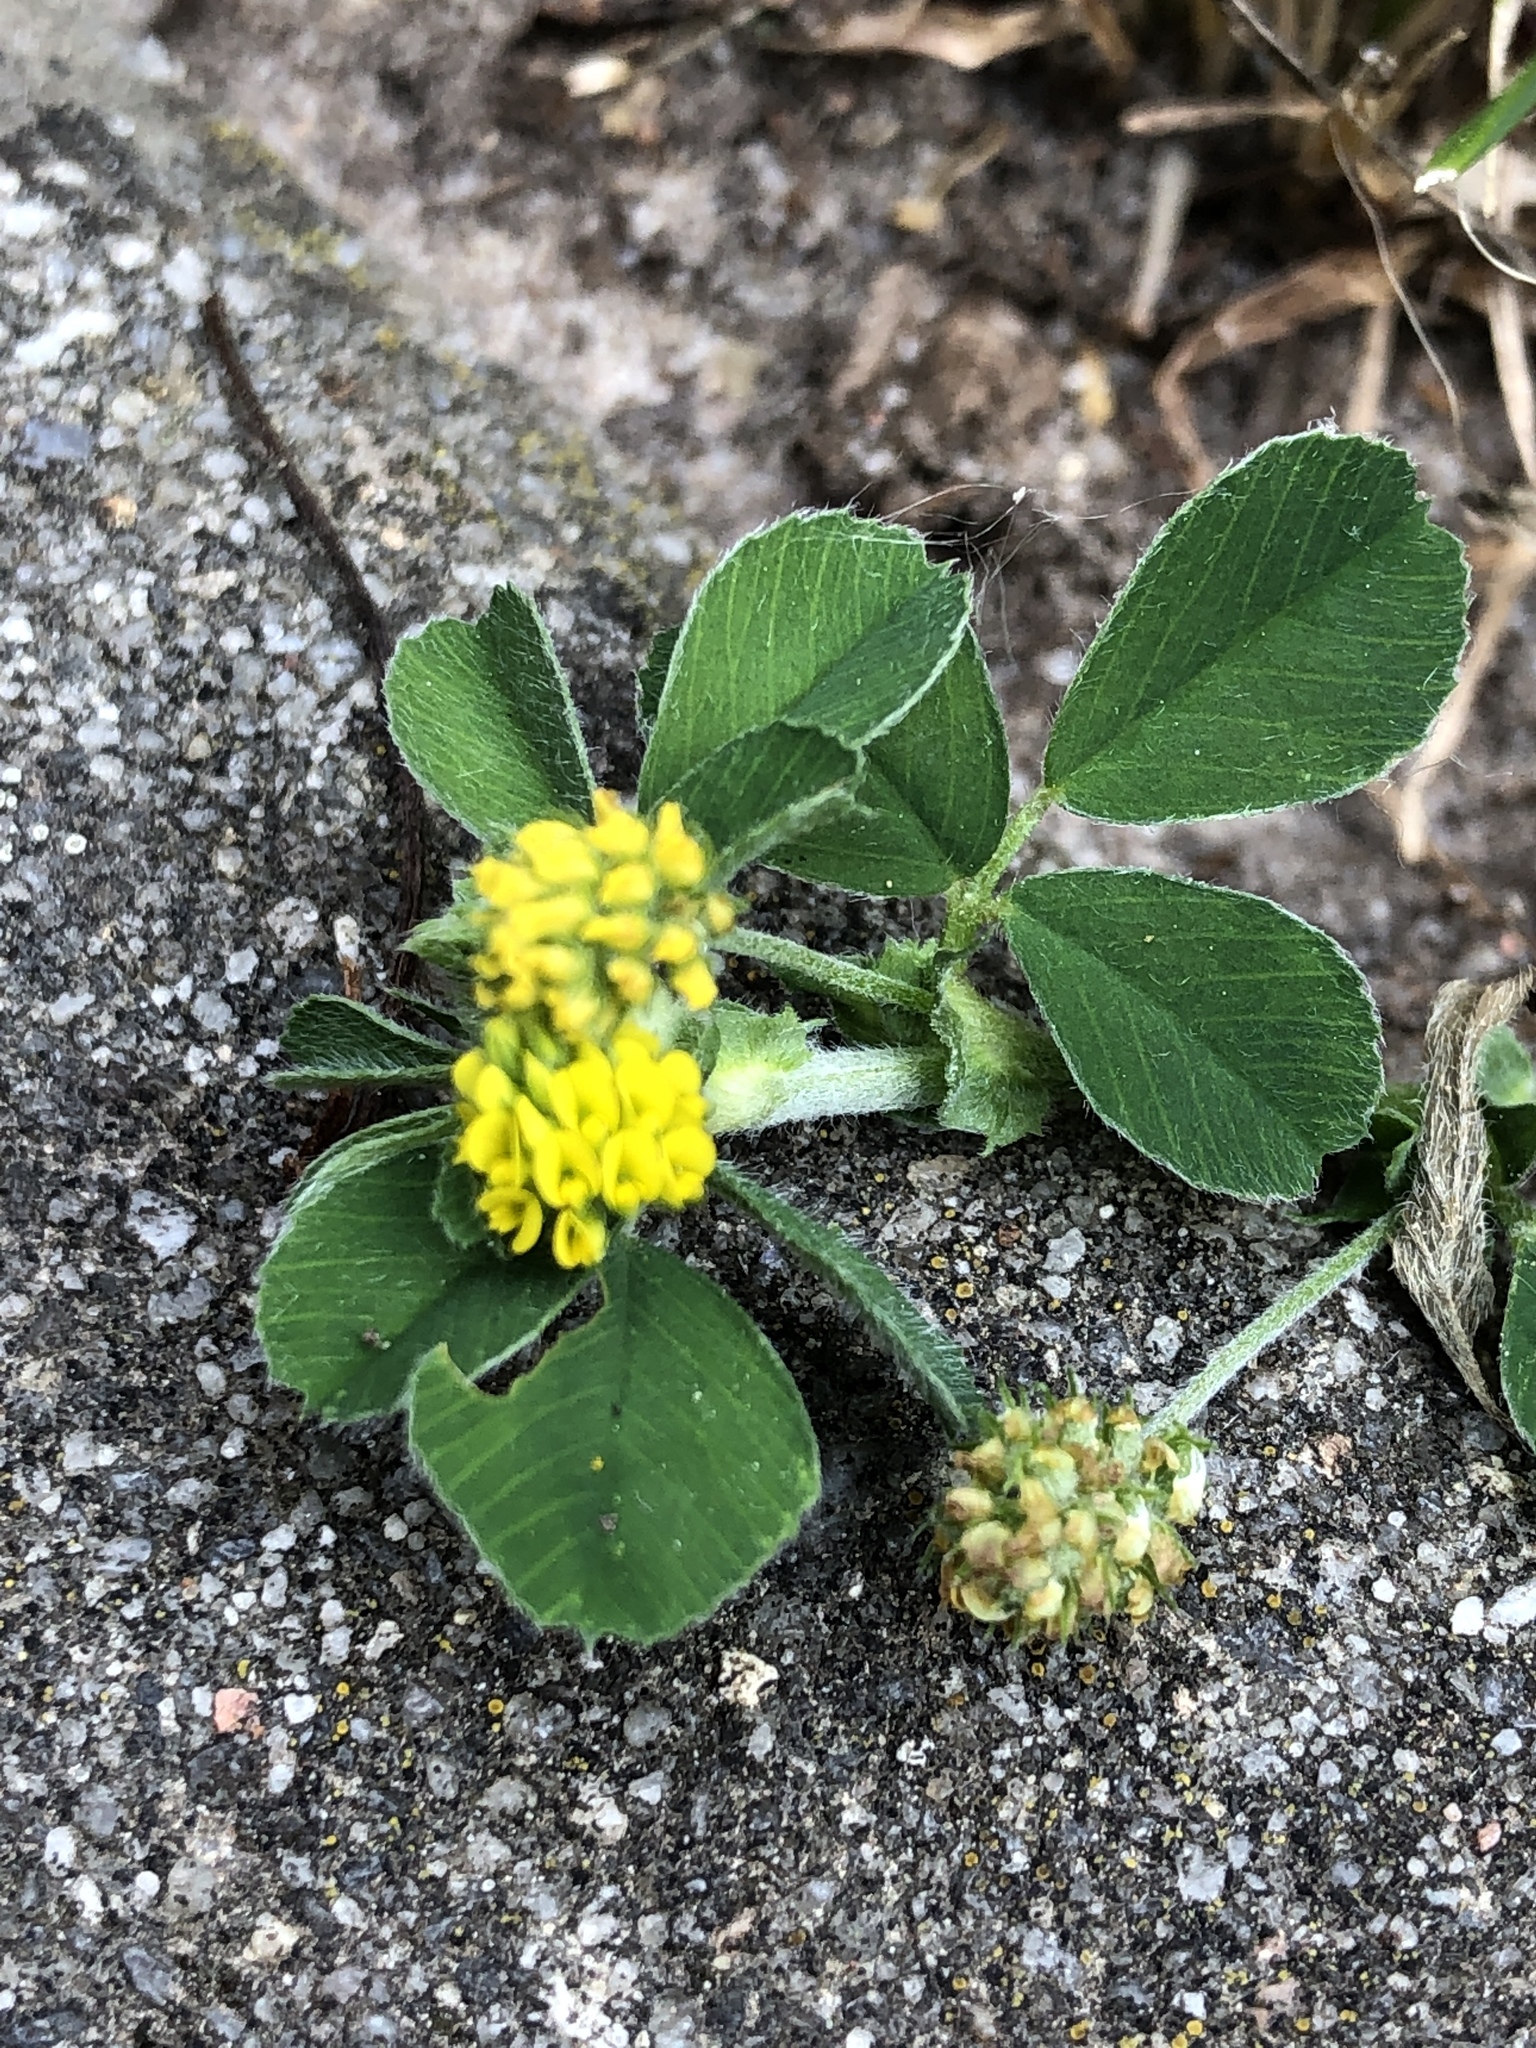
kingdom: Plantae
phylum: Tracheophyta
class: Magnoliopsida
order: Fabales
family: Fabaceae
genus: Medicago
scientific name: Medicago lupulina
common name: Black medick
